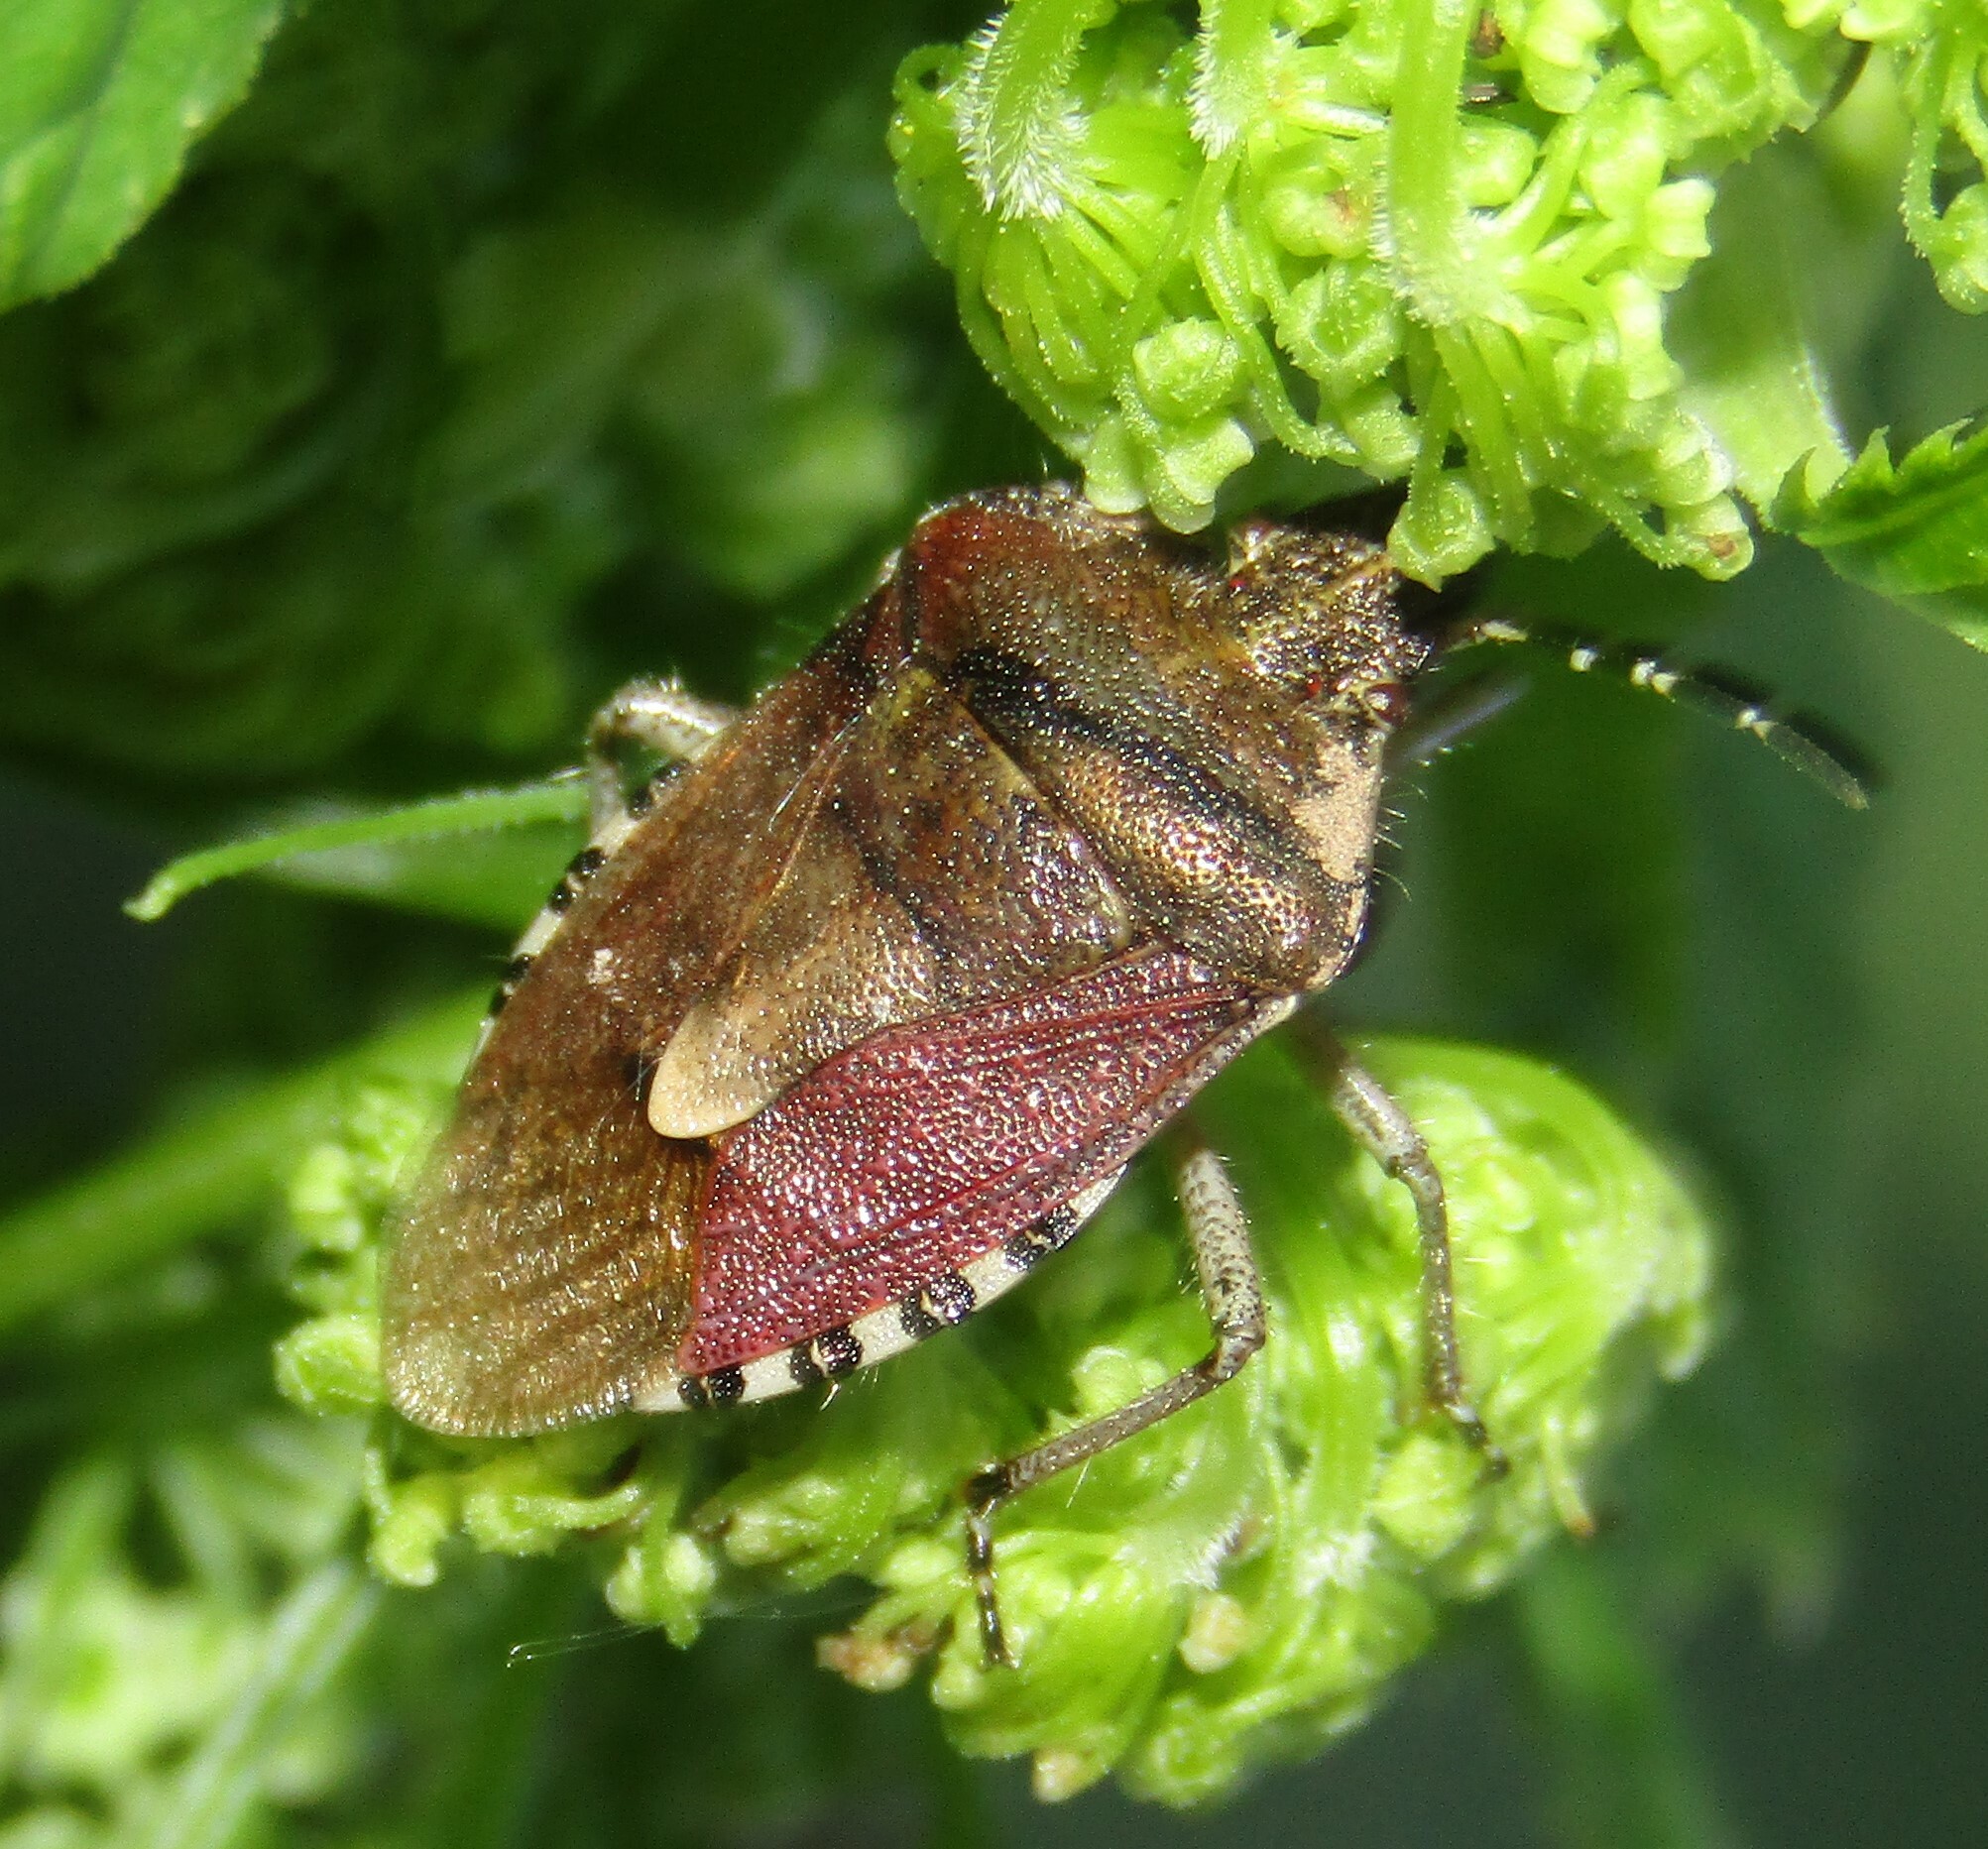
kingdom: Animalia
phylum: Arthropoda
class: Insecta
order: Hemiptera
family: Pentatomidae
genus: Dolycoris
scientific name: Dolycoris baccarum
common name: Sloe bug
